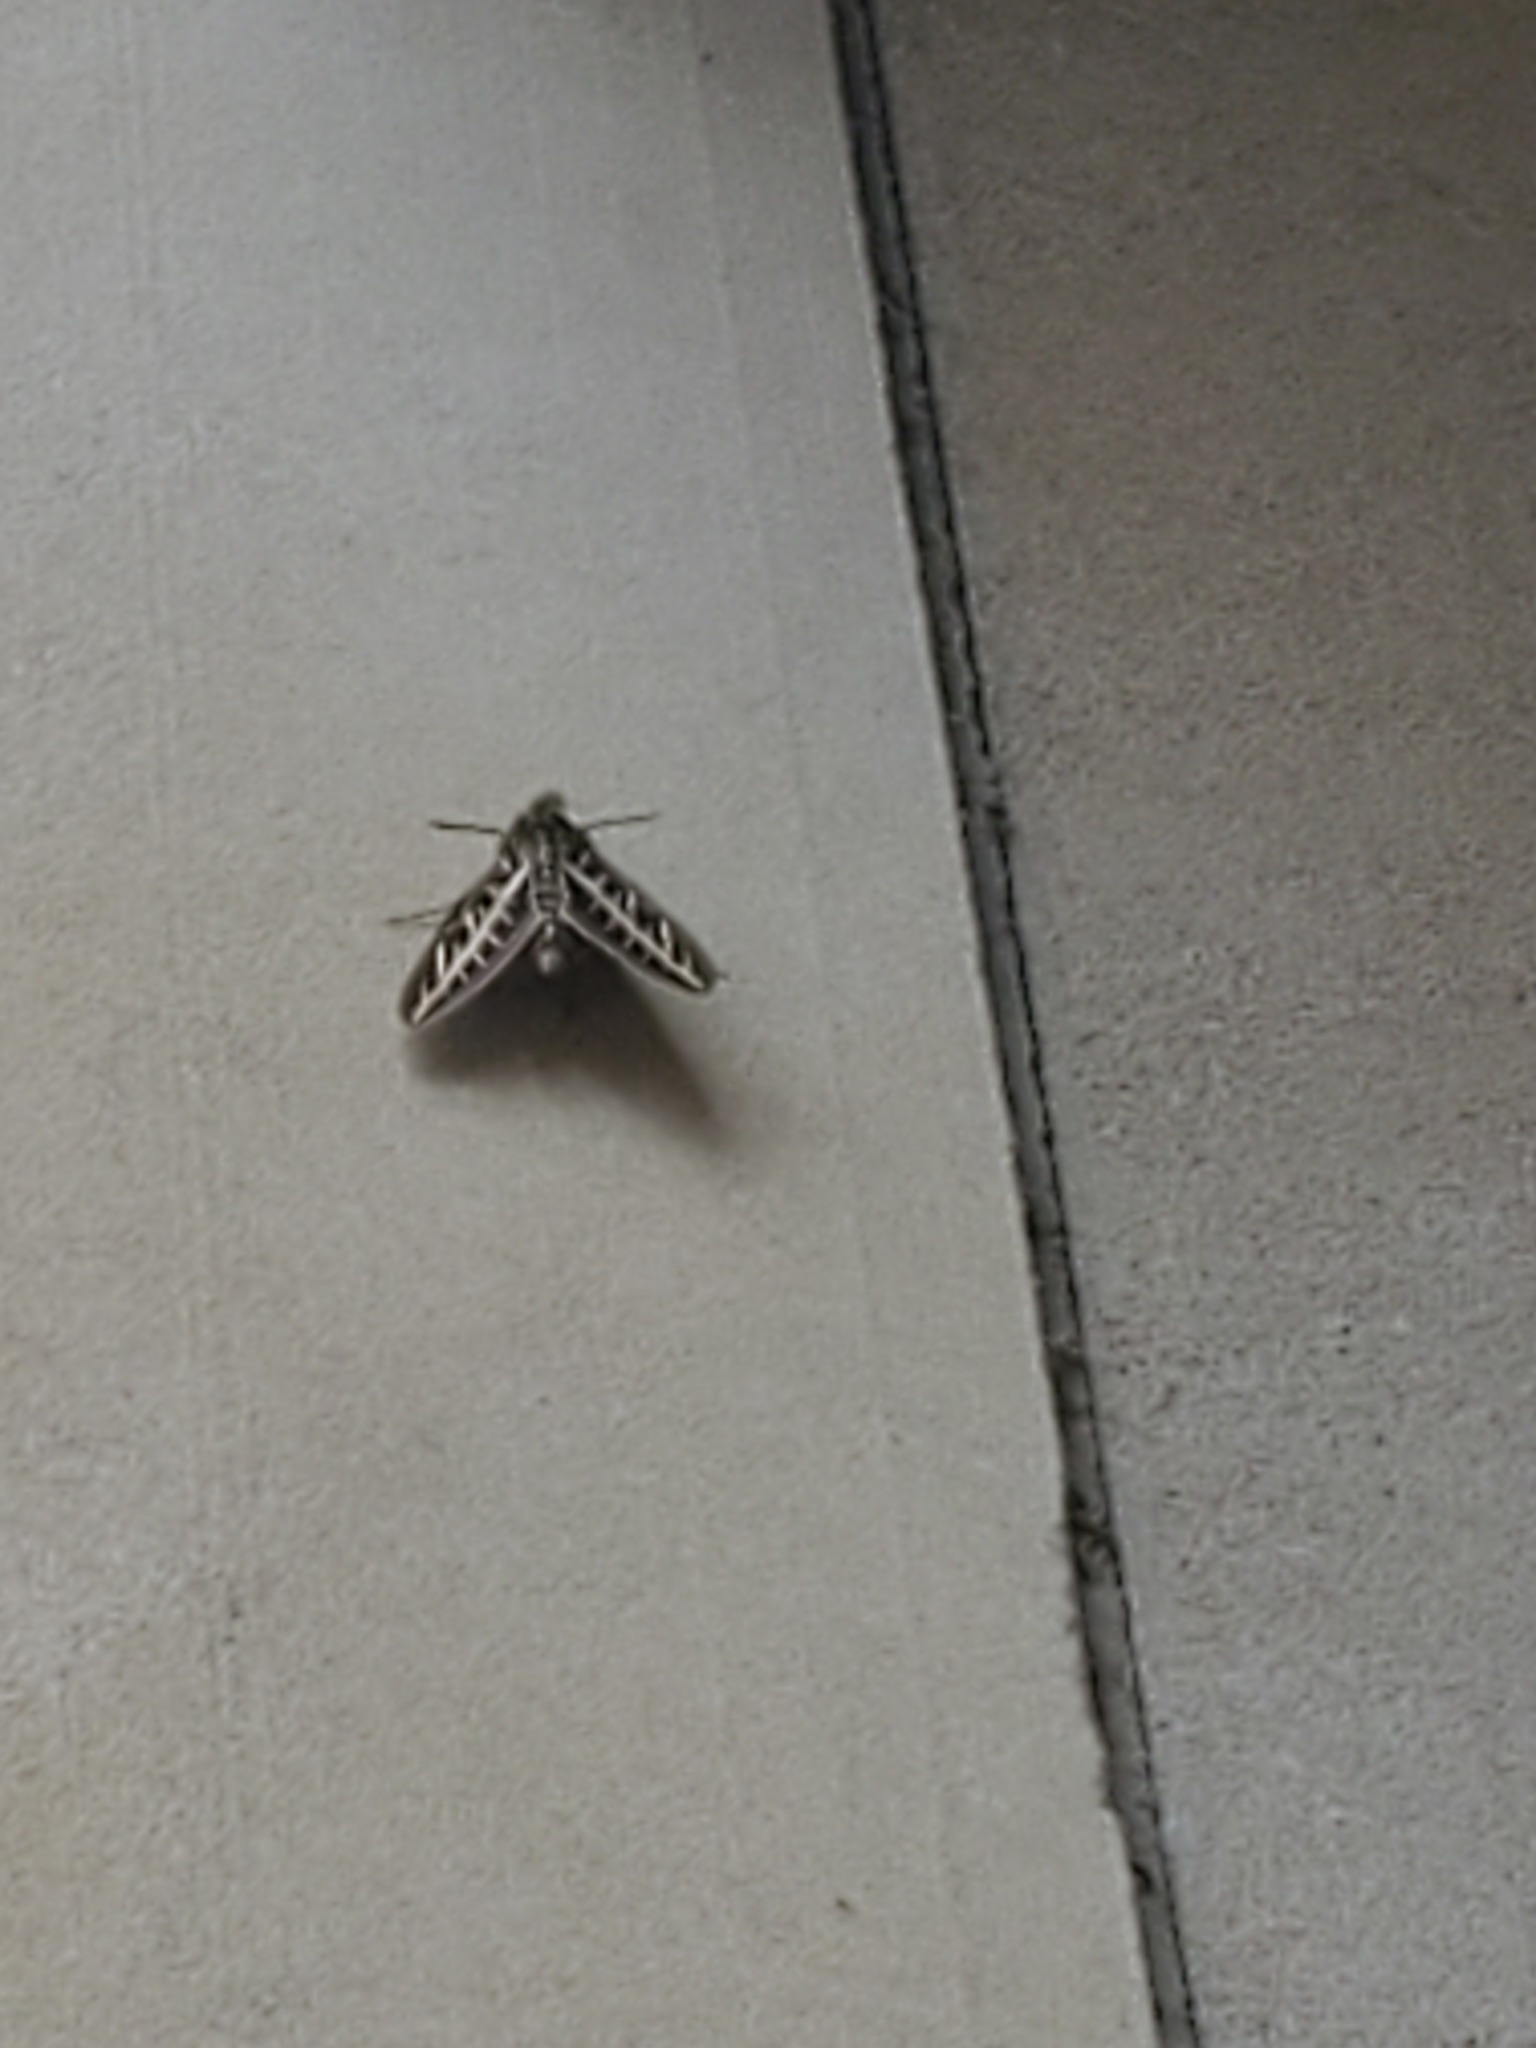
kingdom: Animalia
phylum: Arthropoda
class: Insecta
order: Lepidoptera
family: Sphingidae
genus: Hyles
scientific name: Hyles lineata
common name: White-lined sphinx
